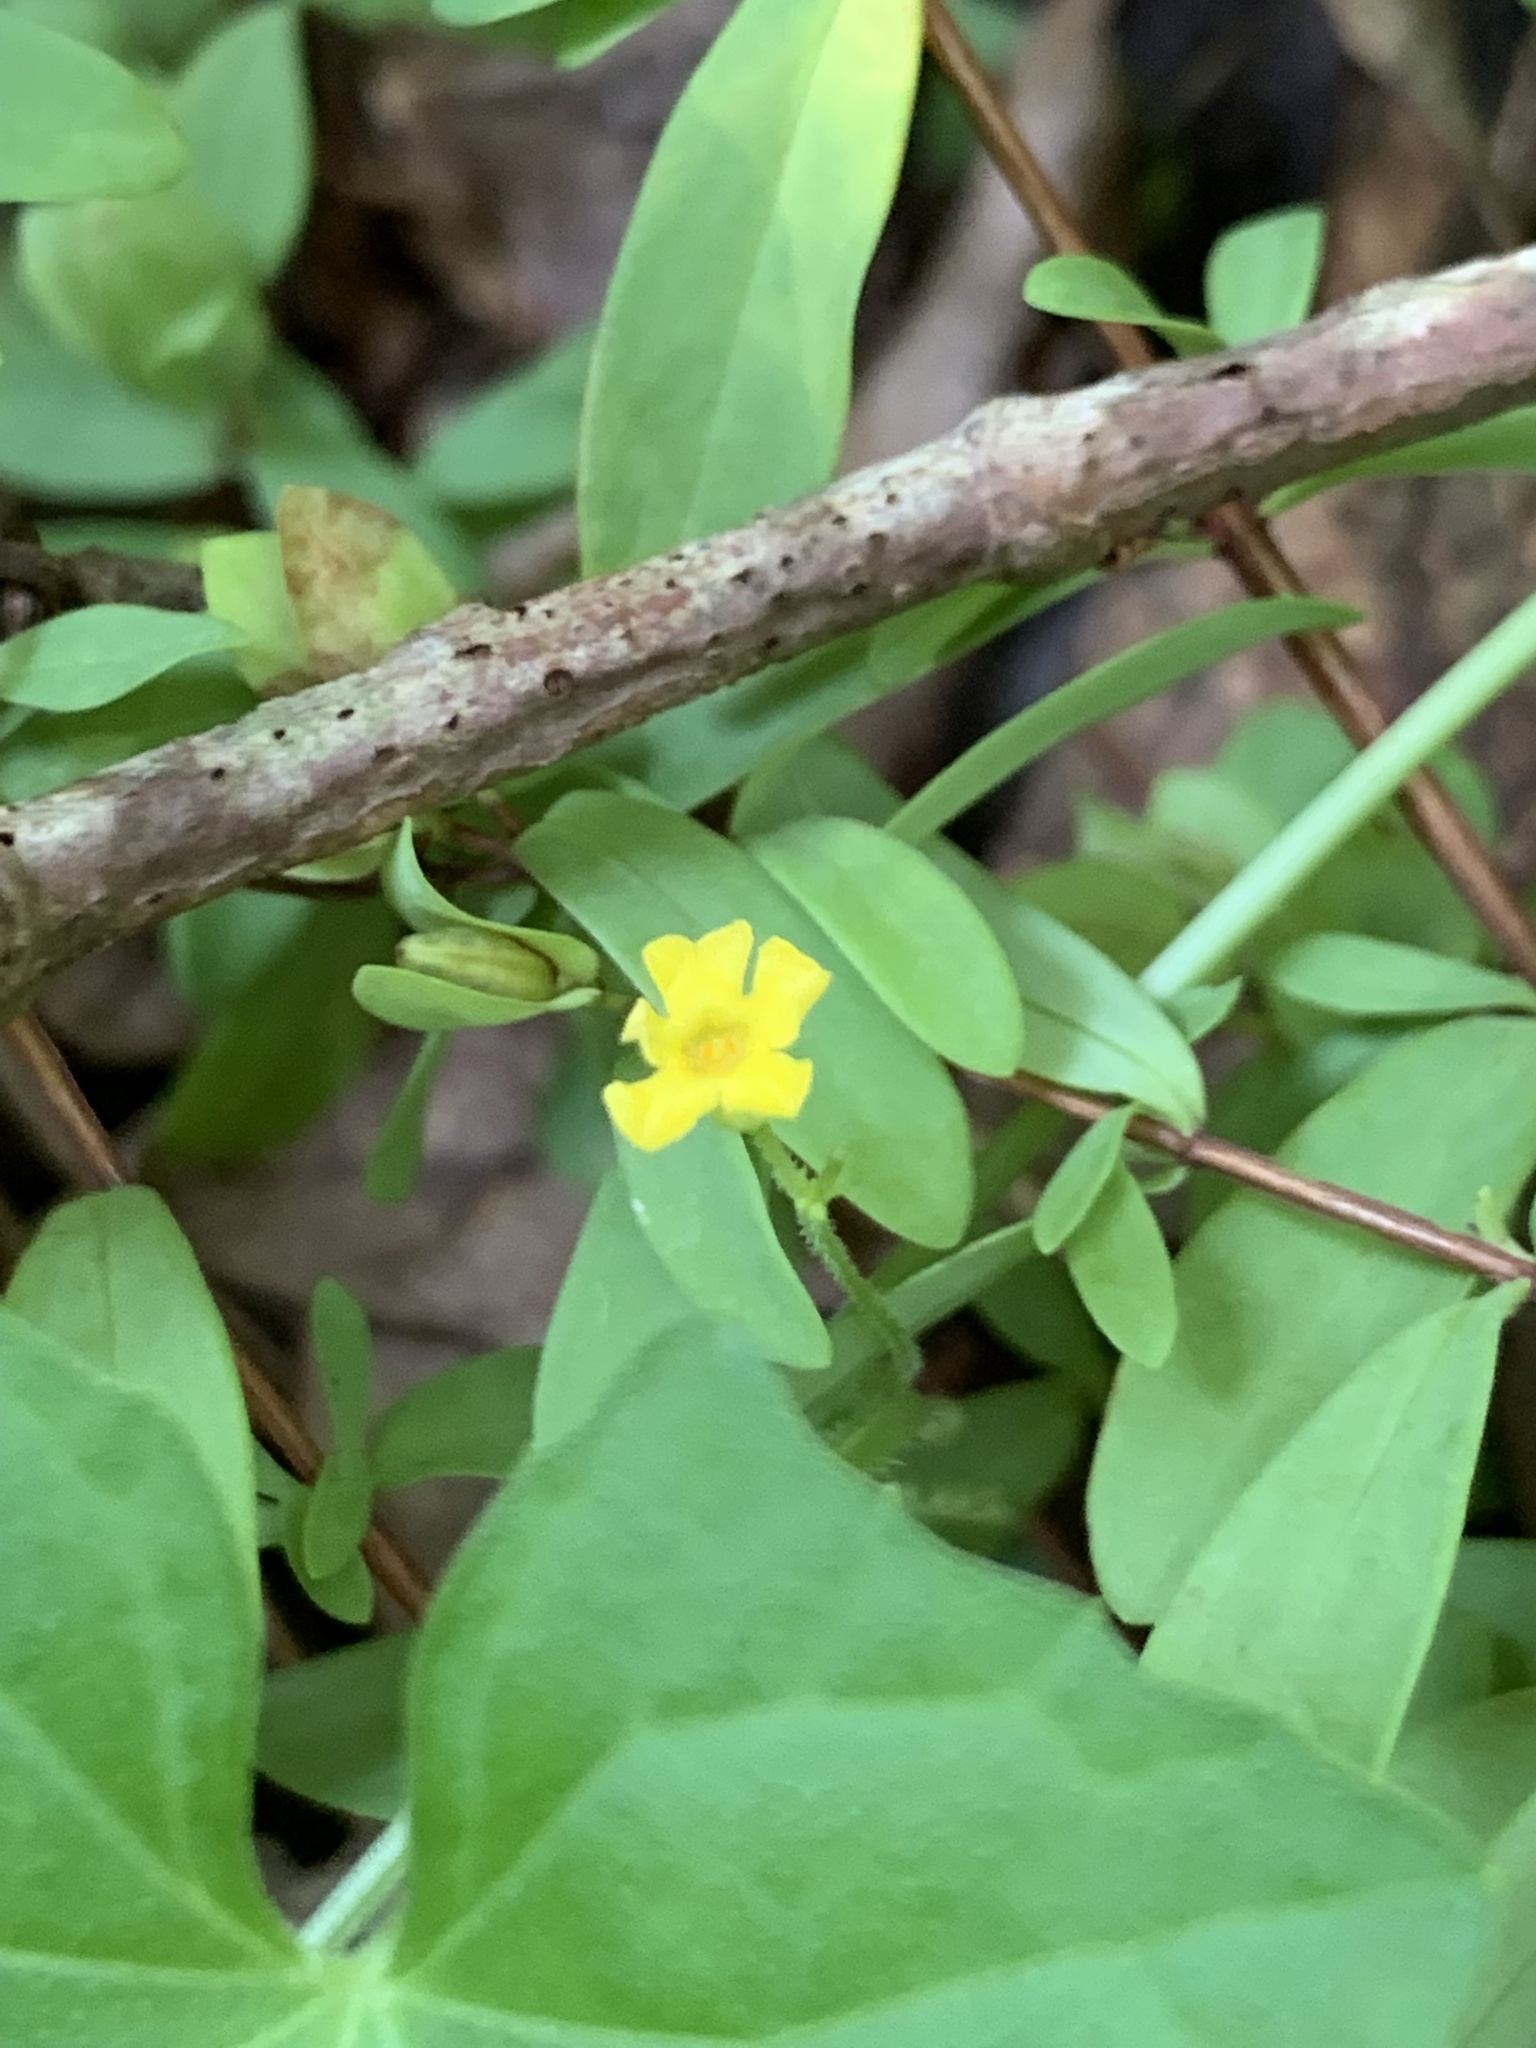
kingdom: Plantae
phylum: Tracheophyta
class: Magnoliopsida
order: Cucurbitales
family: Cucurbitaceae
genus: Melothria
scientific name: Melothria pendula
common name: Creeping-cucumber
